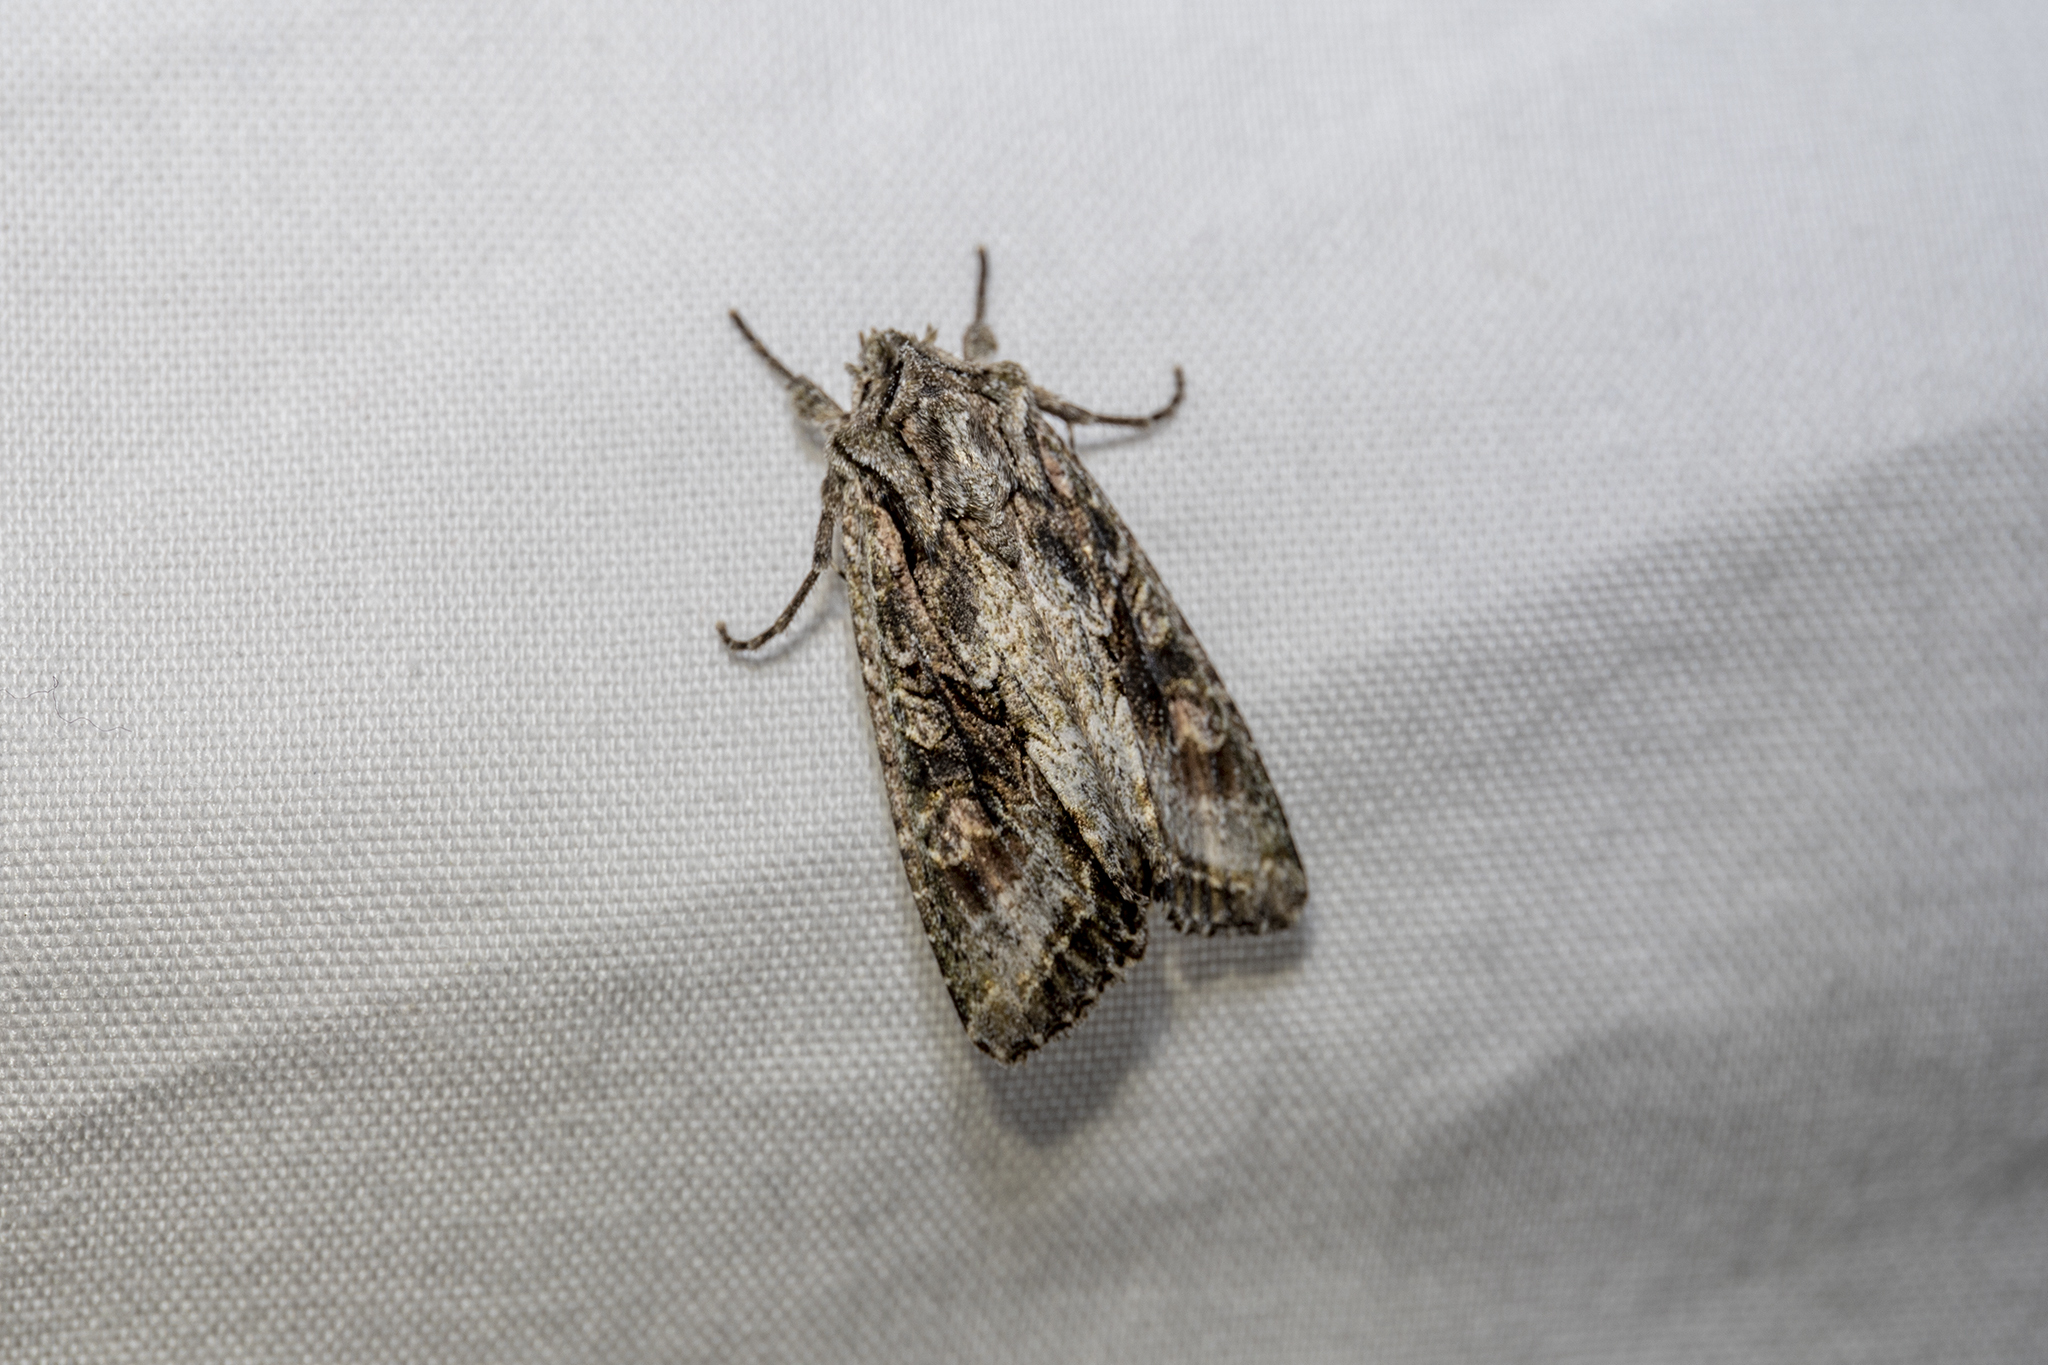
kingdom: Animalia
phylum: Arthropoda
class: Insecta
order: Lepidoptera
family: Noctuidae
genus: Ichneutica
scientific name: Ichneutica mutans
